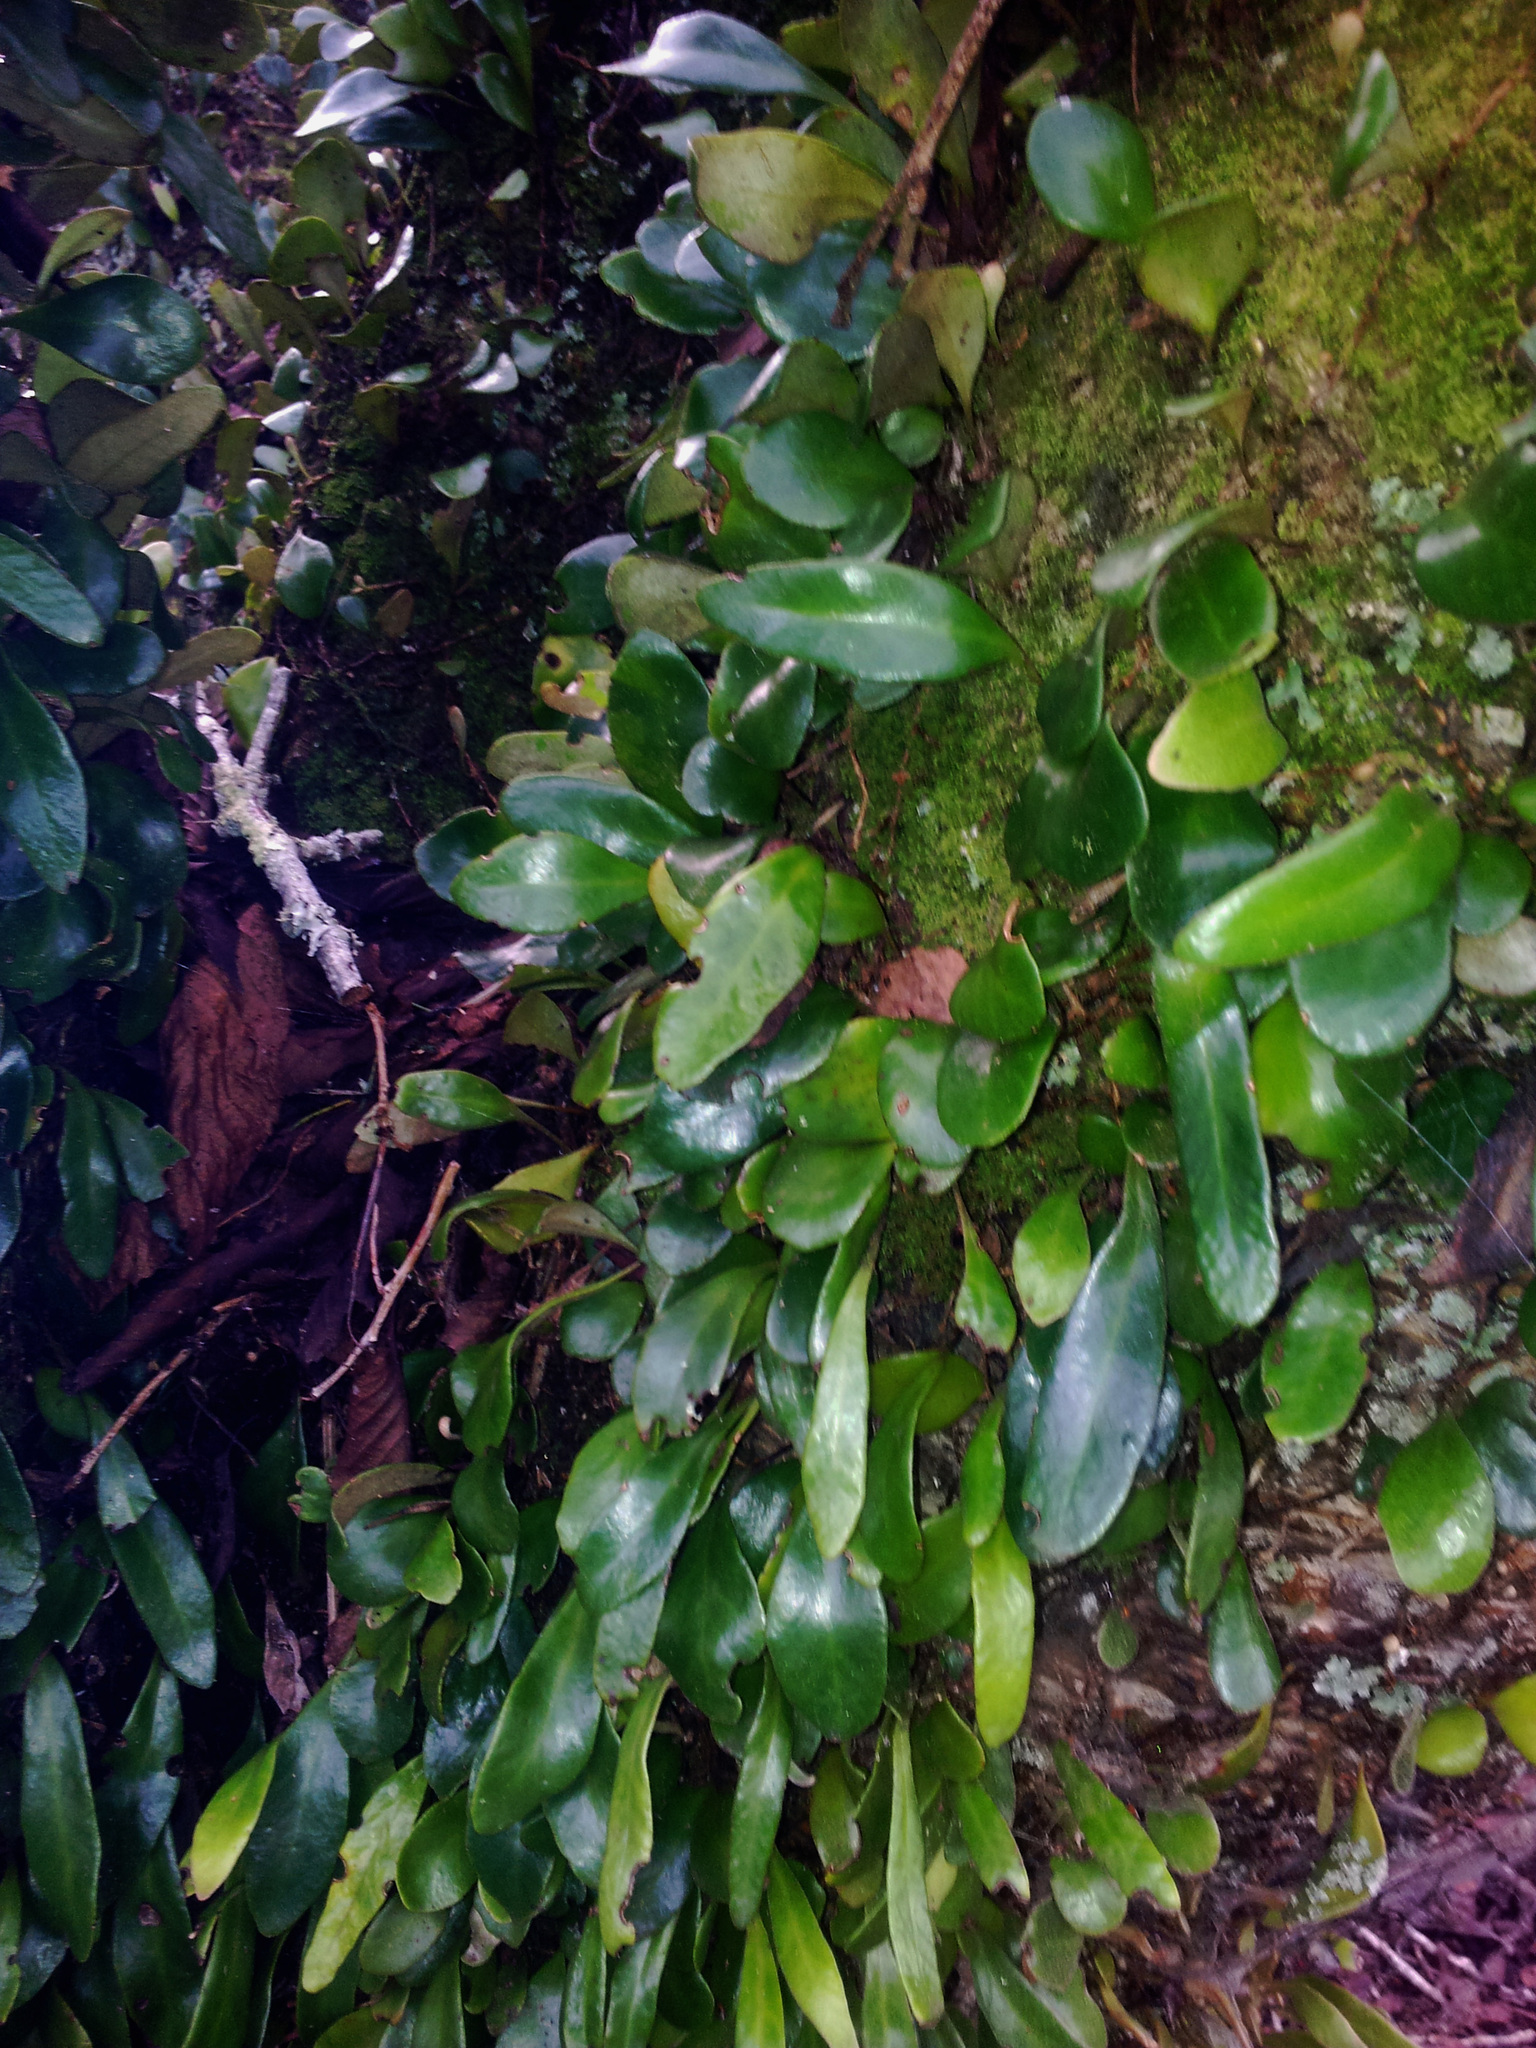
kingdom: Plantae
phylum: Tracheophyta
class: Polypodiopsida
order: Polypodiales
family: Polypodiaceae
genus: Pyrrosia
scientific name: Pyrrosia eleagnifolia
